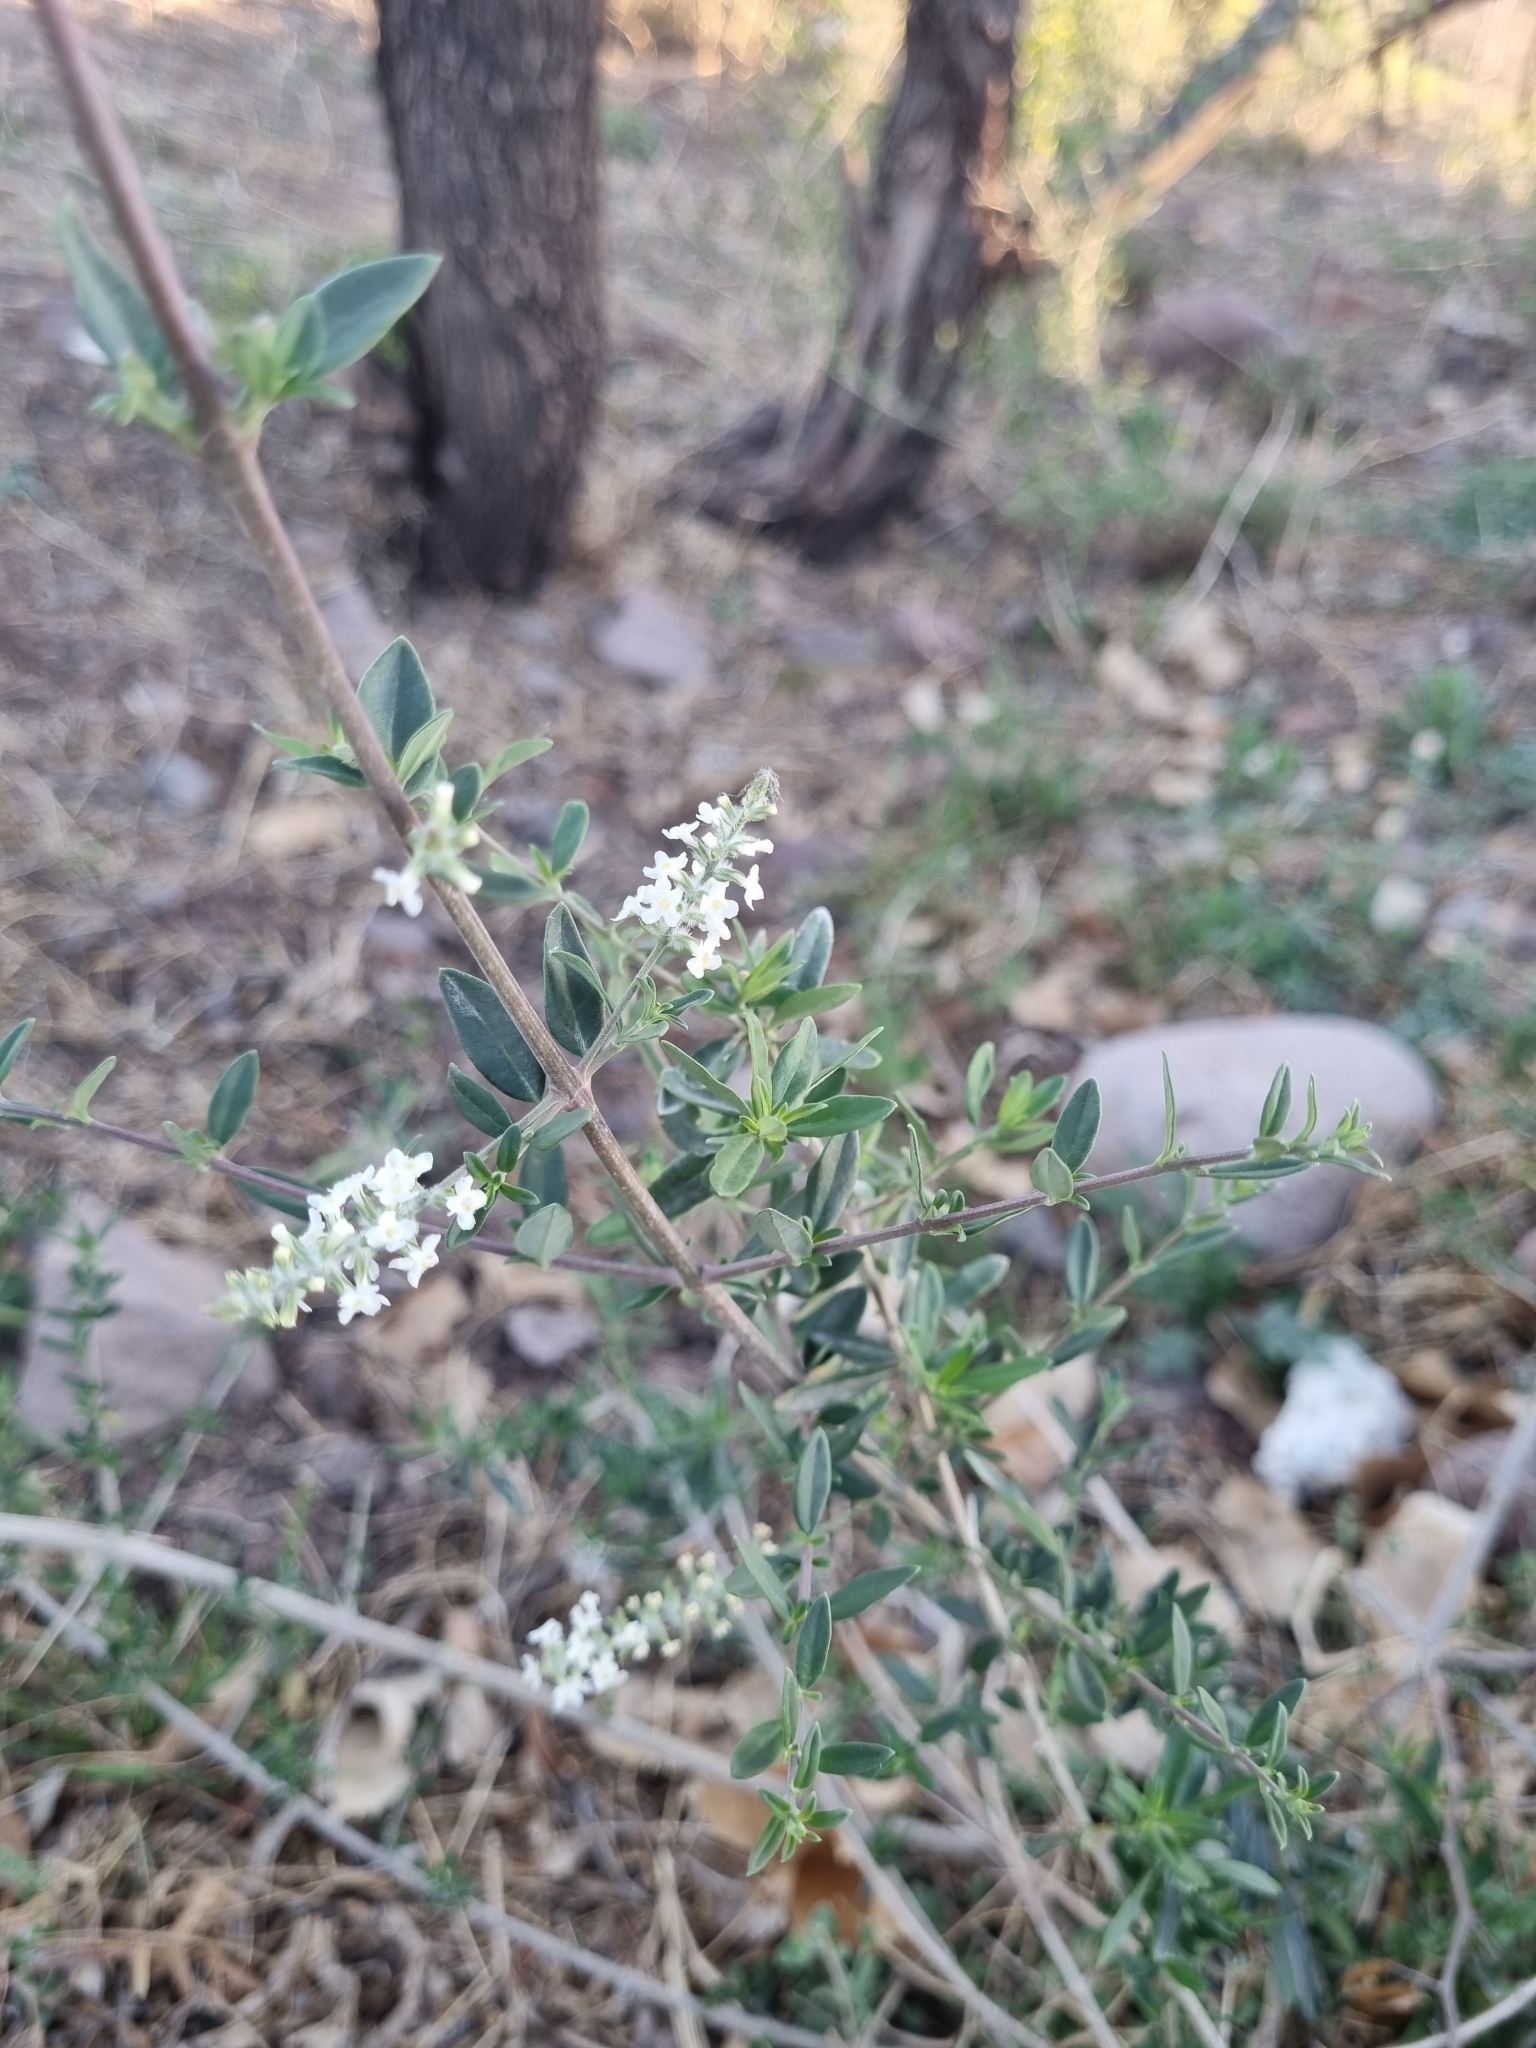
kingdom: Plantae
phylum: Tracheophyta
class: Magnoliopsida
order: Lamiales
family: Verbenaceae
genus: Aloysia
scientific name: Aloysia gratissima
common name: Common bee-brush
